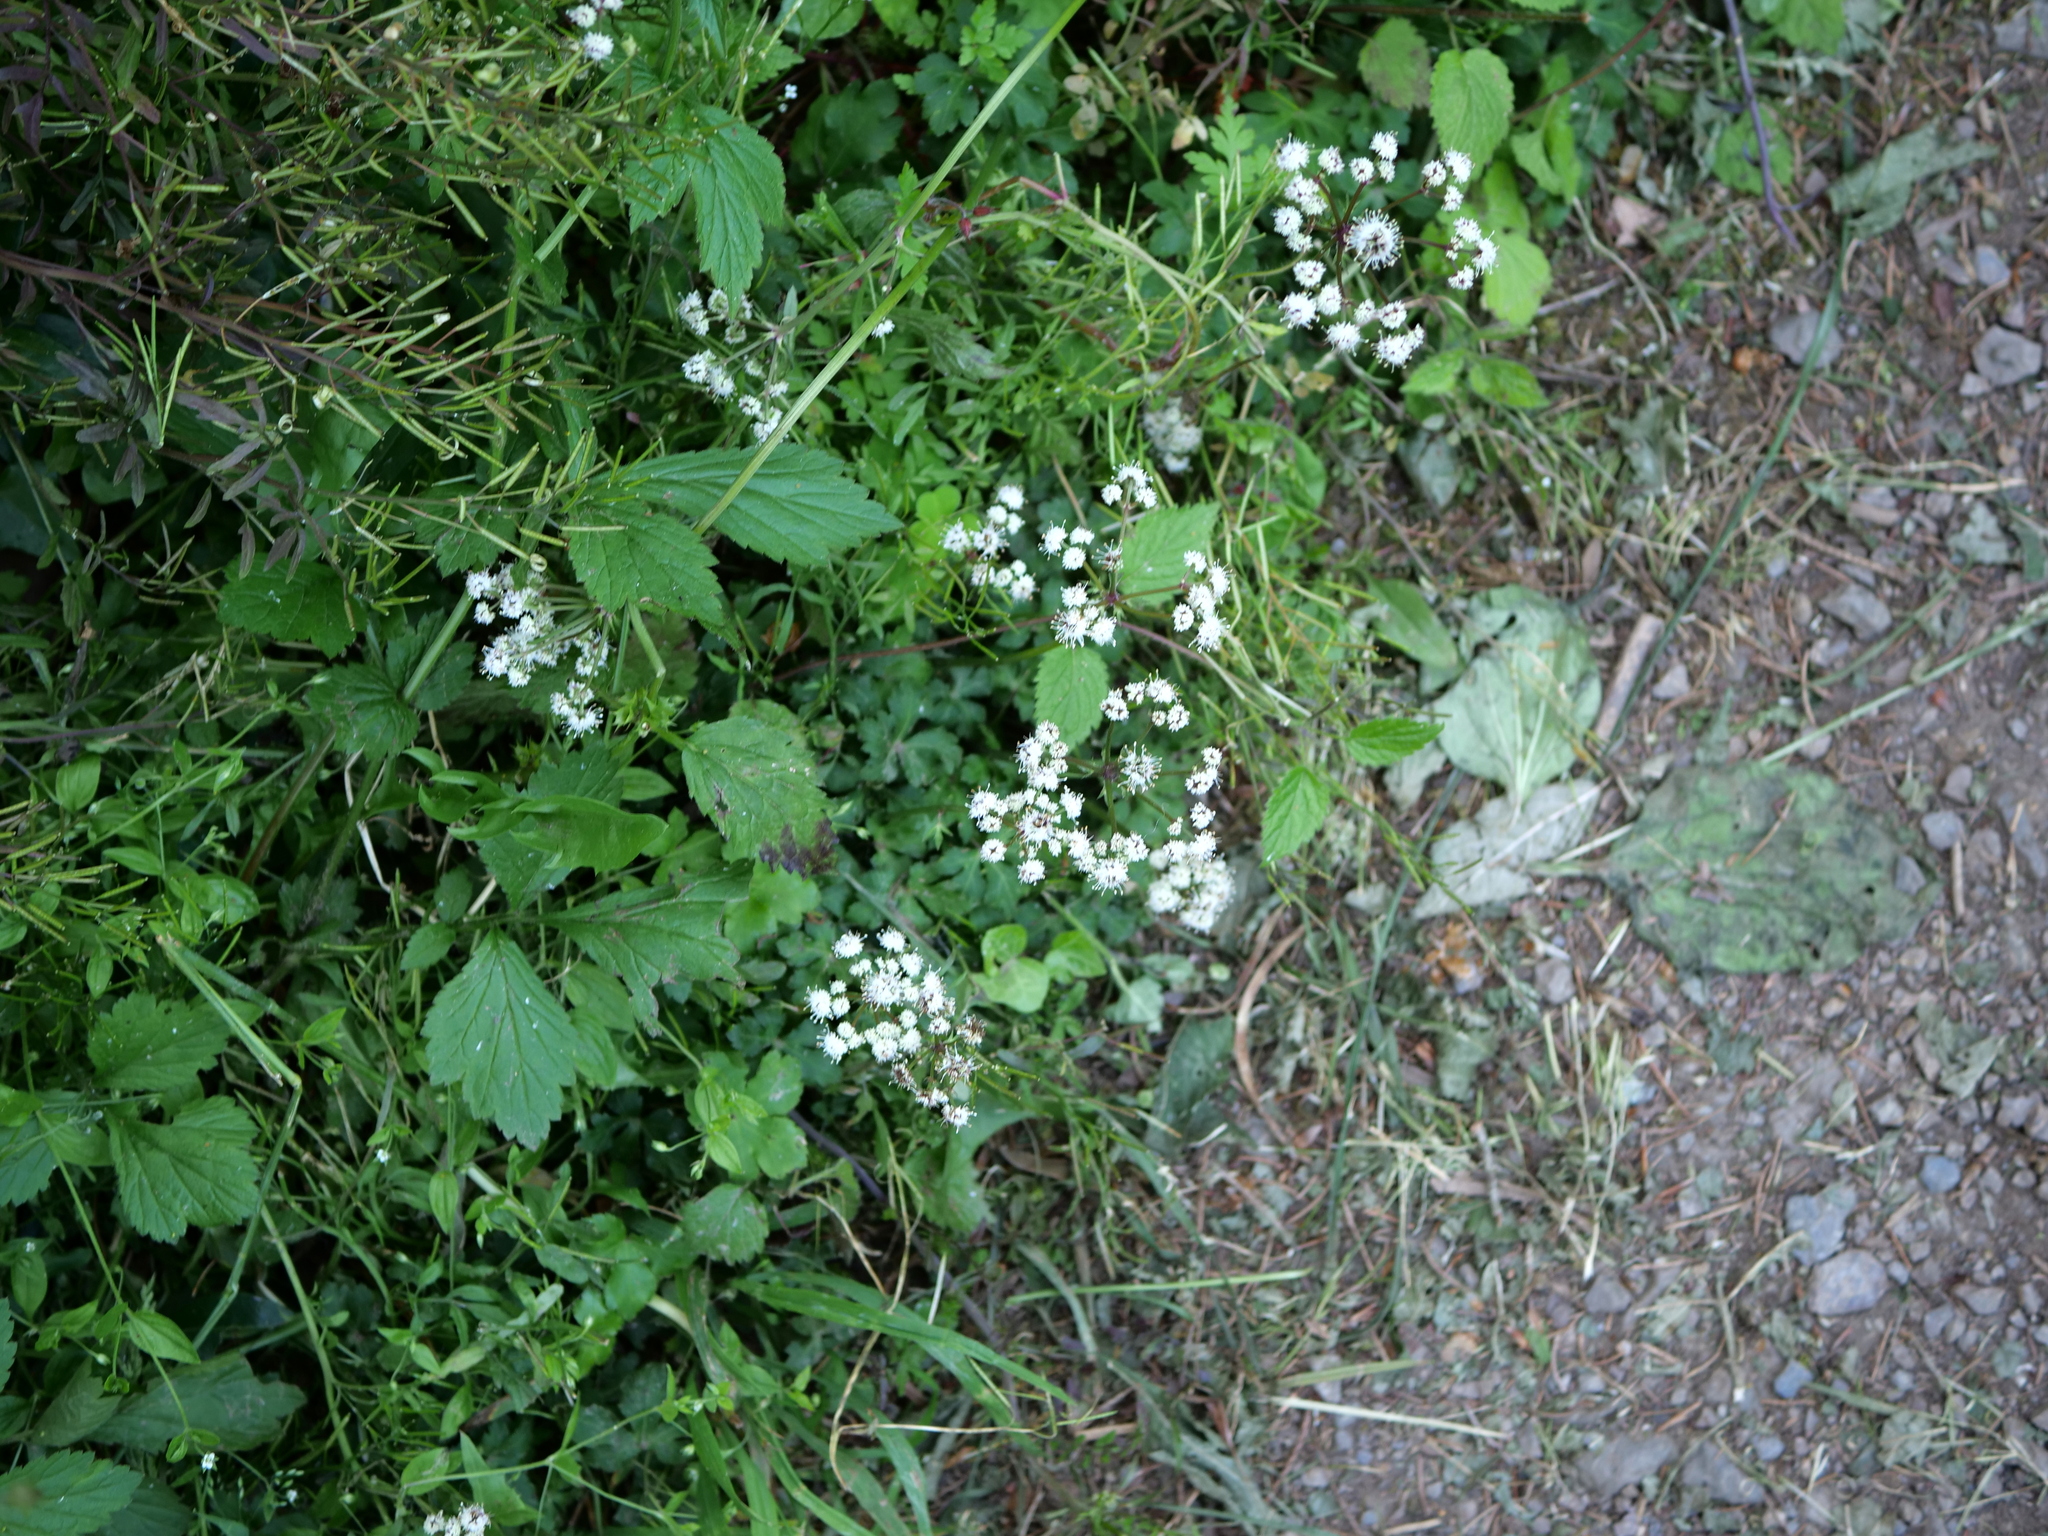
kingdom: Plantae
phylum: Tracheophyta
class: Magnoliopsida
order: Apiales
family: Apiaceae
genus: Sanicula
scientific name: Sanicula europaea
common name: Sanicle
